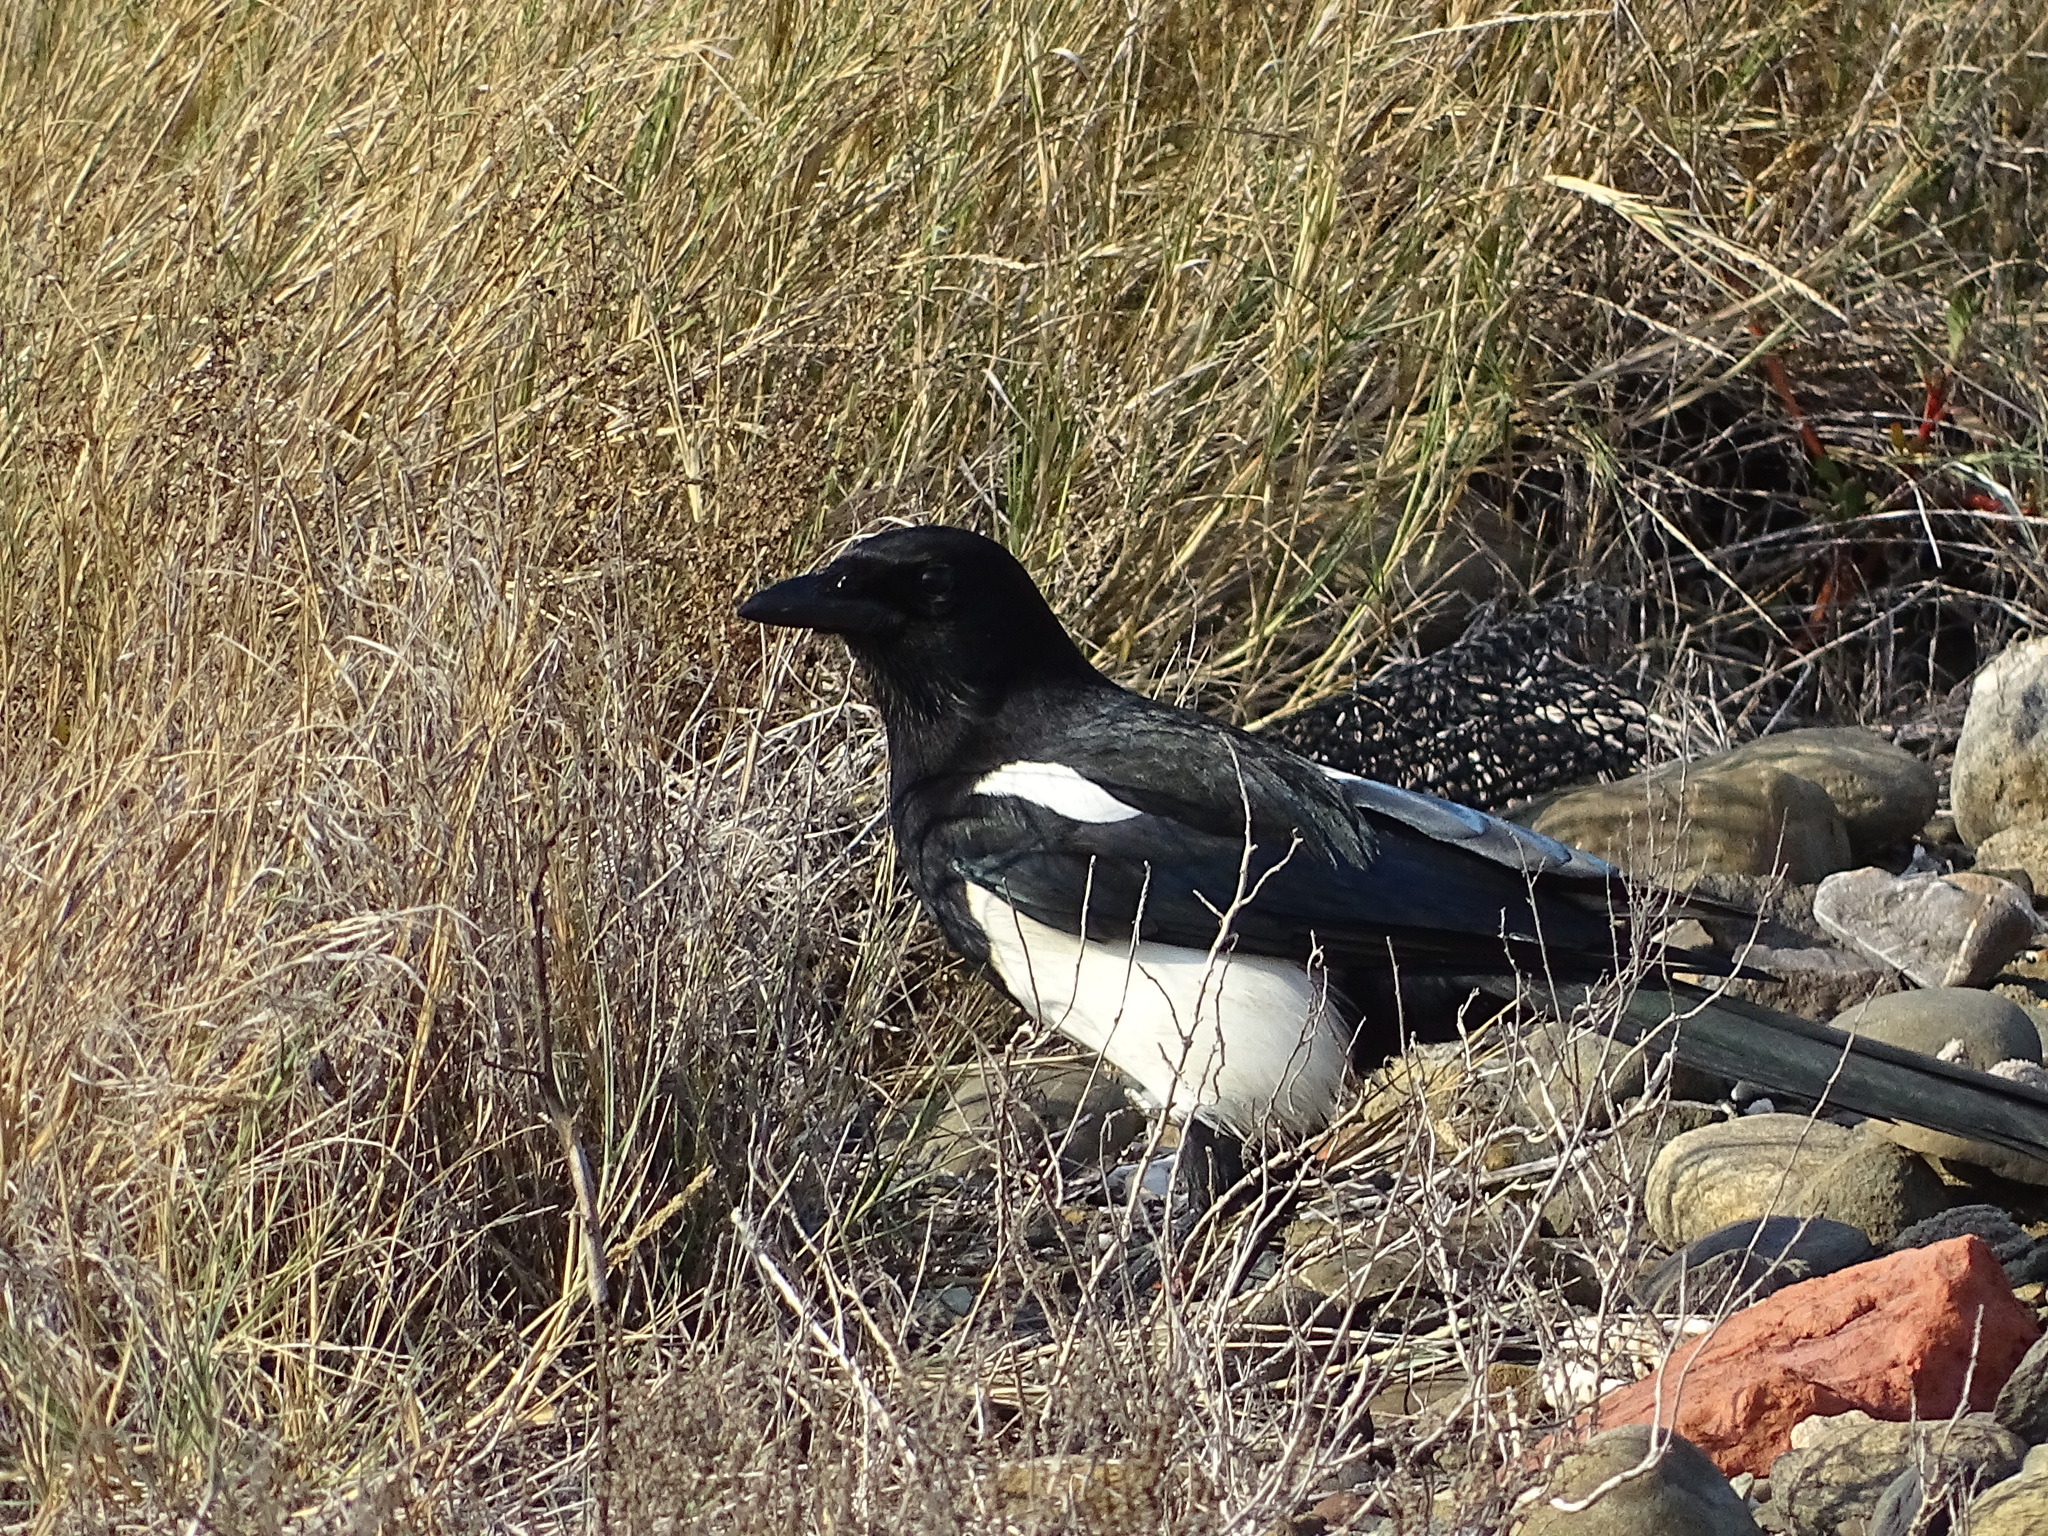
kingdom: Animalia
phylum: Chordata
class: Aves
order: Passeriformes
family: Corvidae
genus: Pica
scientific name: Pica serica
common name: Oriental magpie
